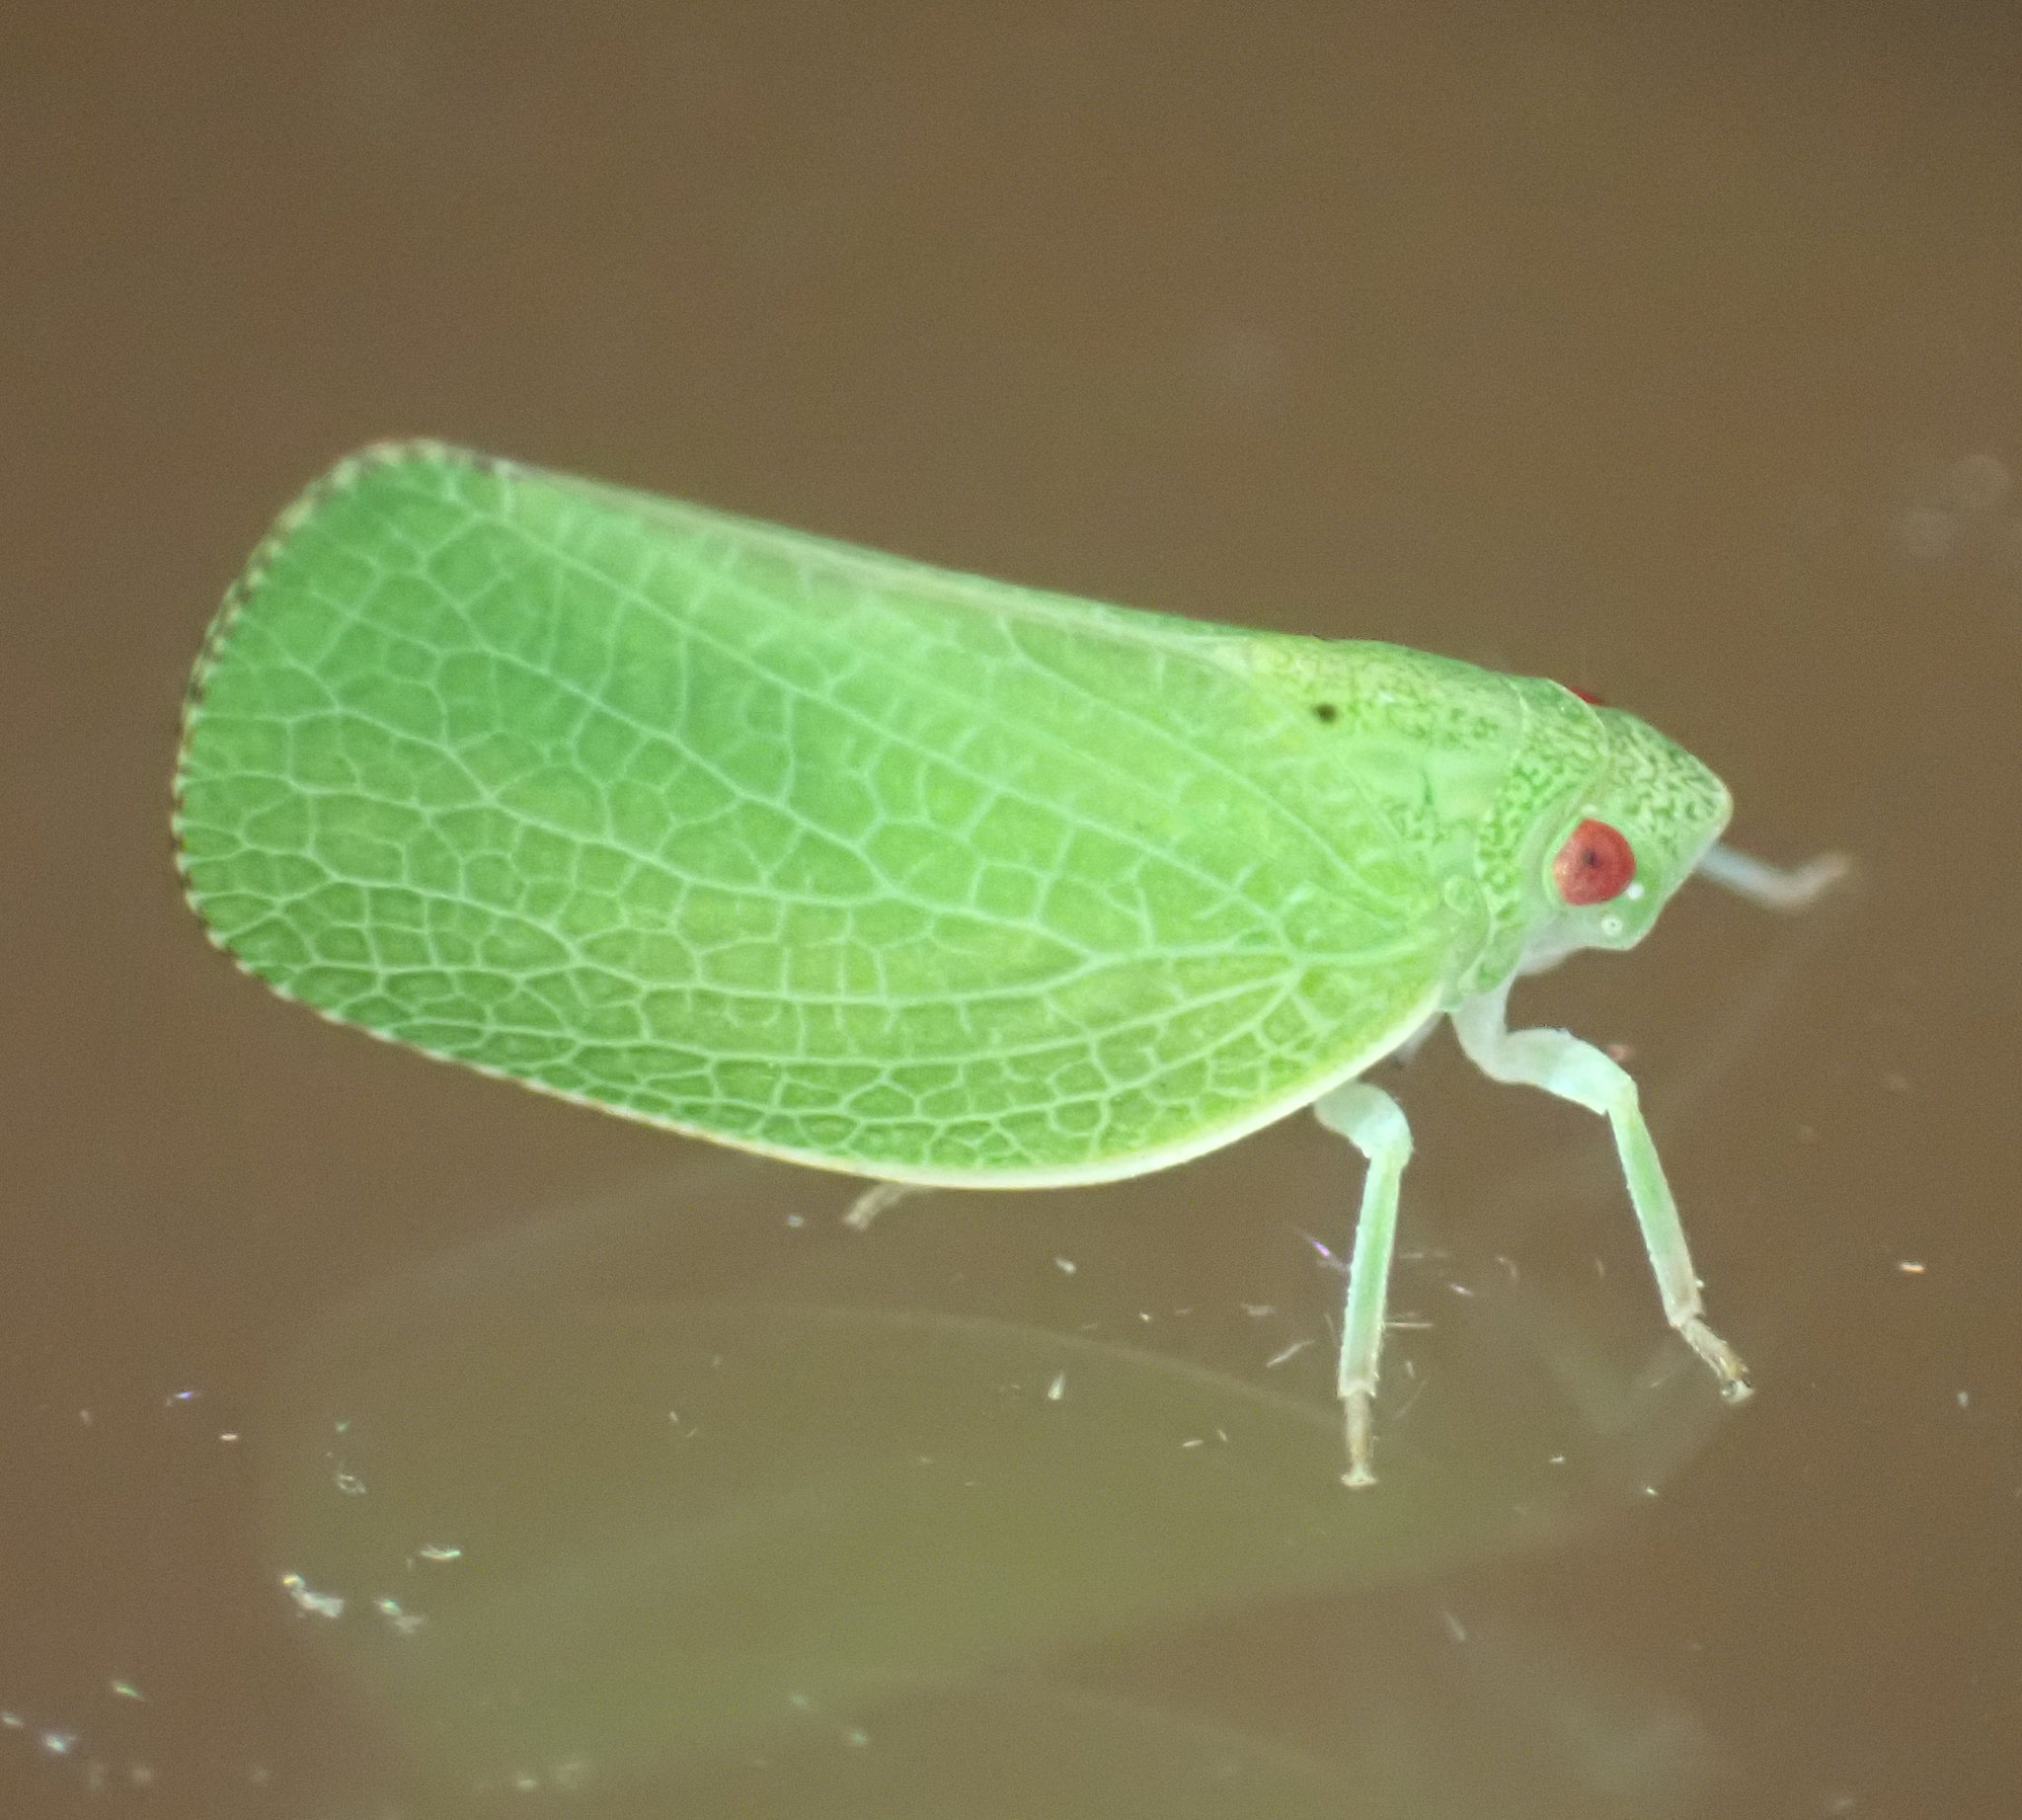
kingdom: Animalia
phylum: Arthropoda
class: Insecta
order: Hemiptera
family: Acanaloniidae
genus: Acanalonia
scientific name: Acanalonia conica
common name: Green cone-headed planthopper
